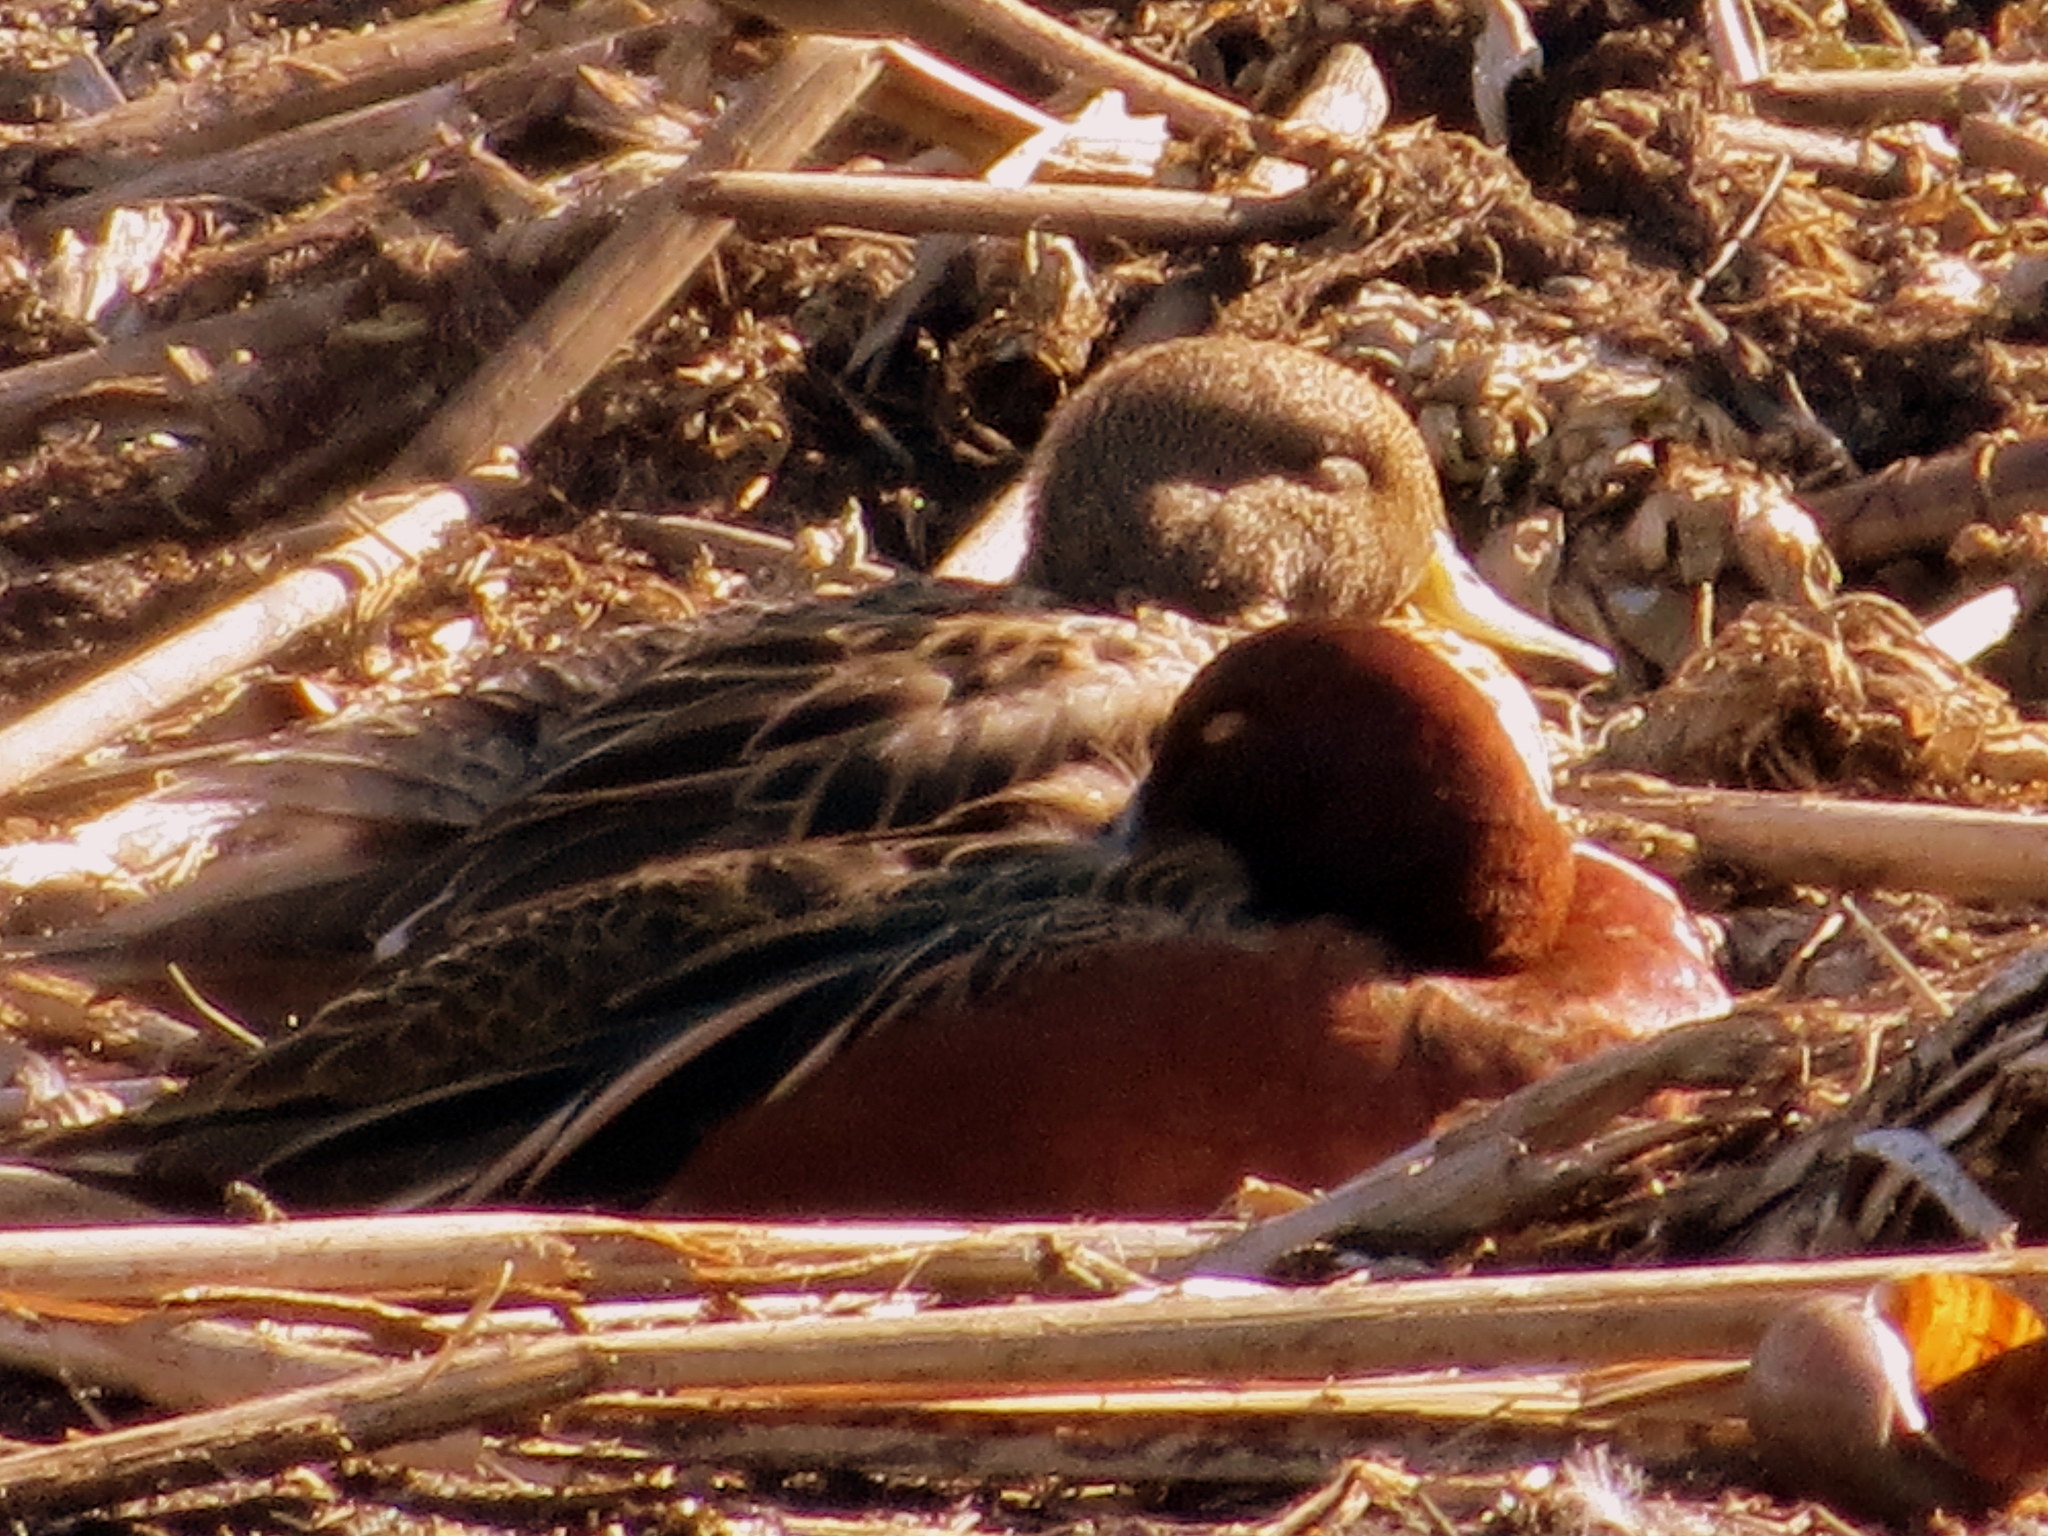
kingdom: Animalia
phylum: Chordata
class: Aves
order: Anseriformes
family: Anatidae
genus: Spatula
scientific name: Spatula cyanoptera
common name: Cinnamon teal
